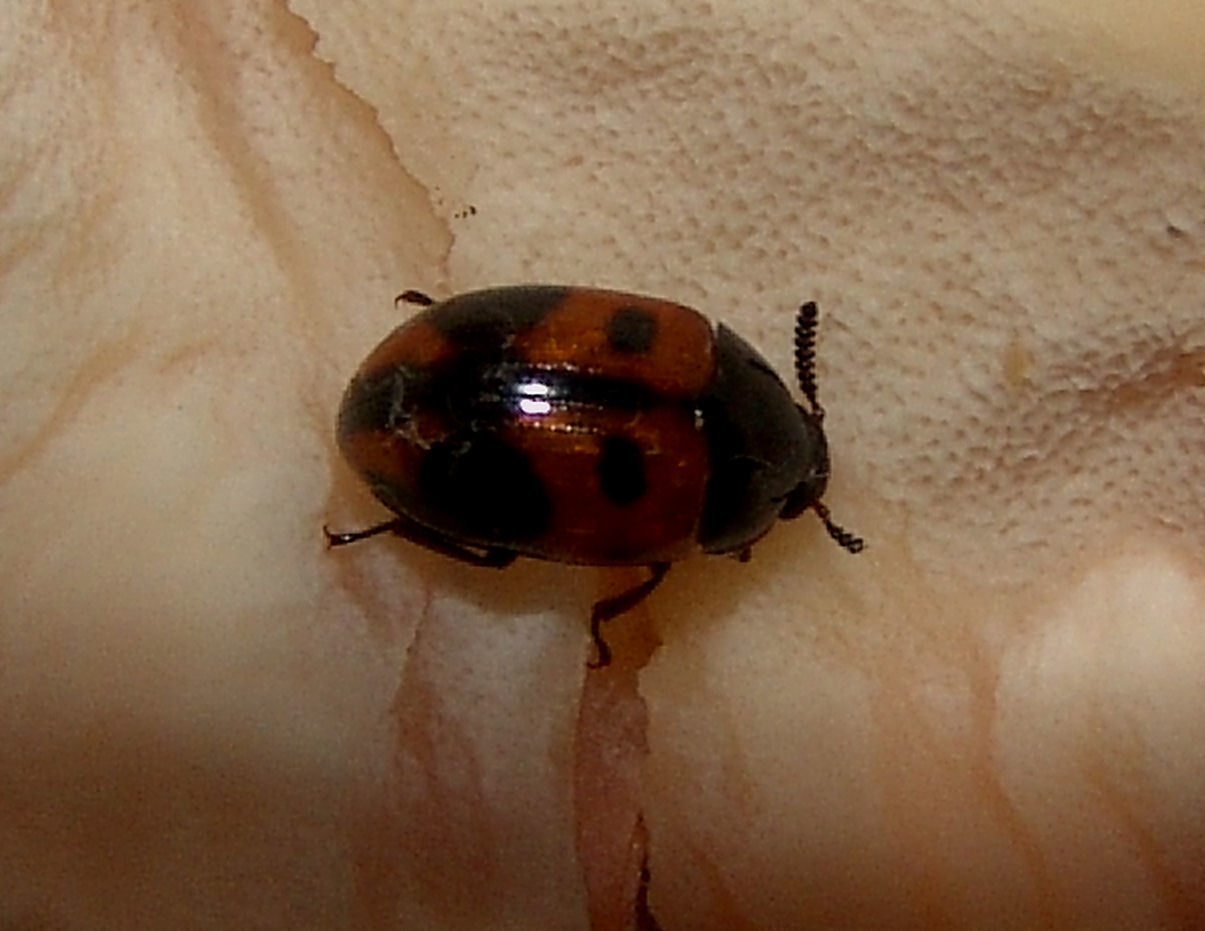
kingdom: Animalia
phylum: Arthropoda
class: Insecta
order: Coleoptera
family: Tenebrionidae
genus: Diaperis
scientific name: Diaperis maculata
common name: Darkling beetle
